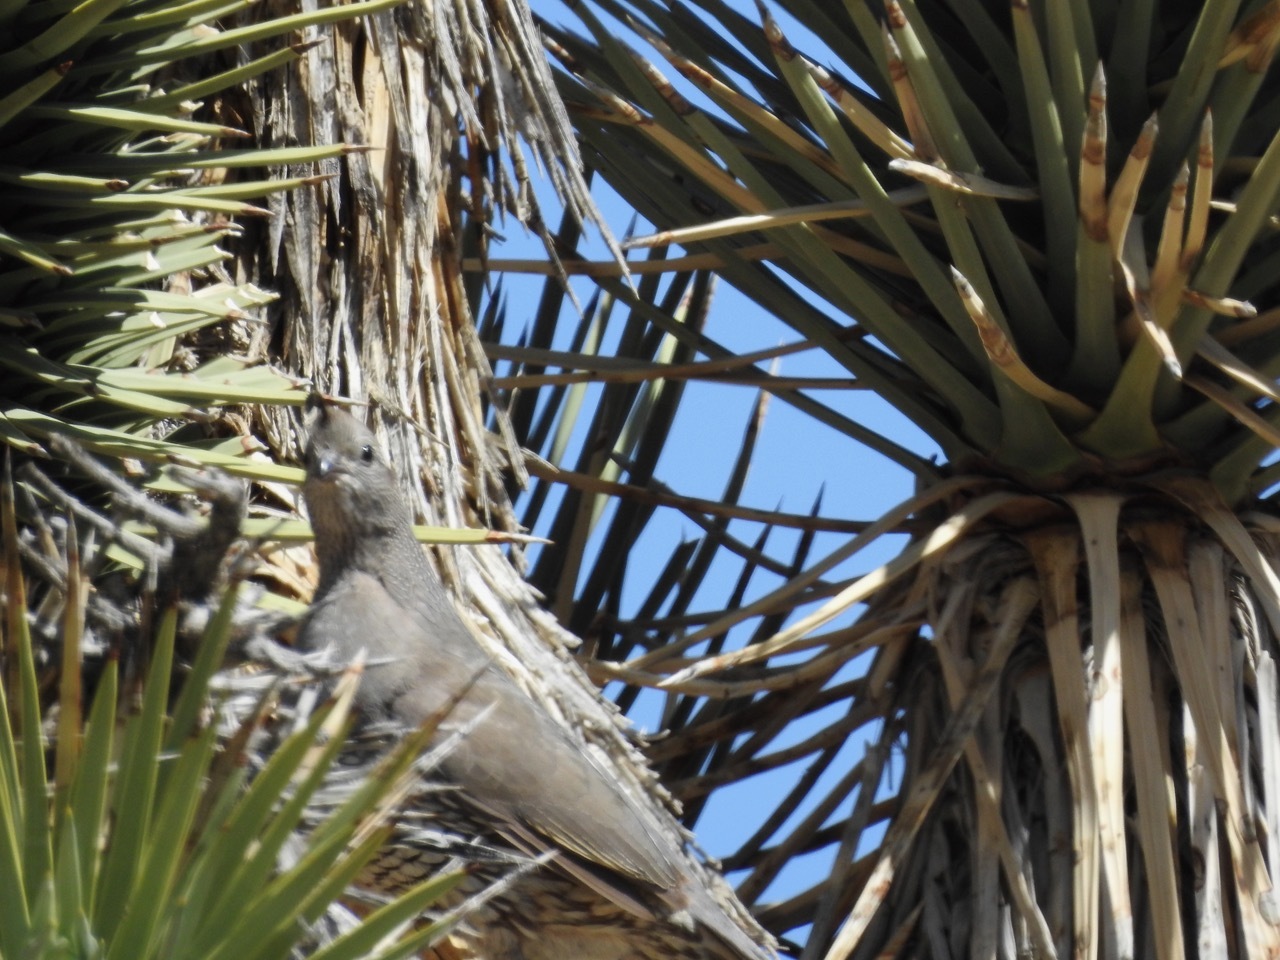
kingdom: Animalia
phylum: Chordata
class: Aves
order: Galliformes
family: Odontophoridae
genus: Callipepla
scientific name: Callipepla californica
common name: California quail
